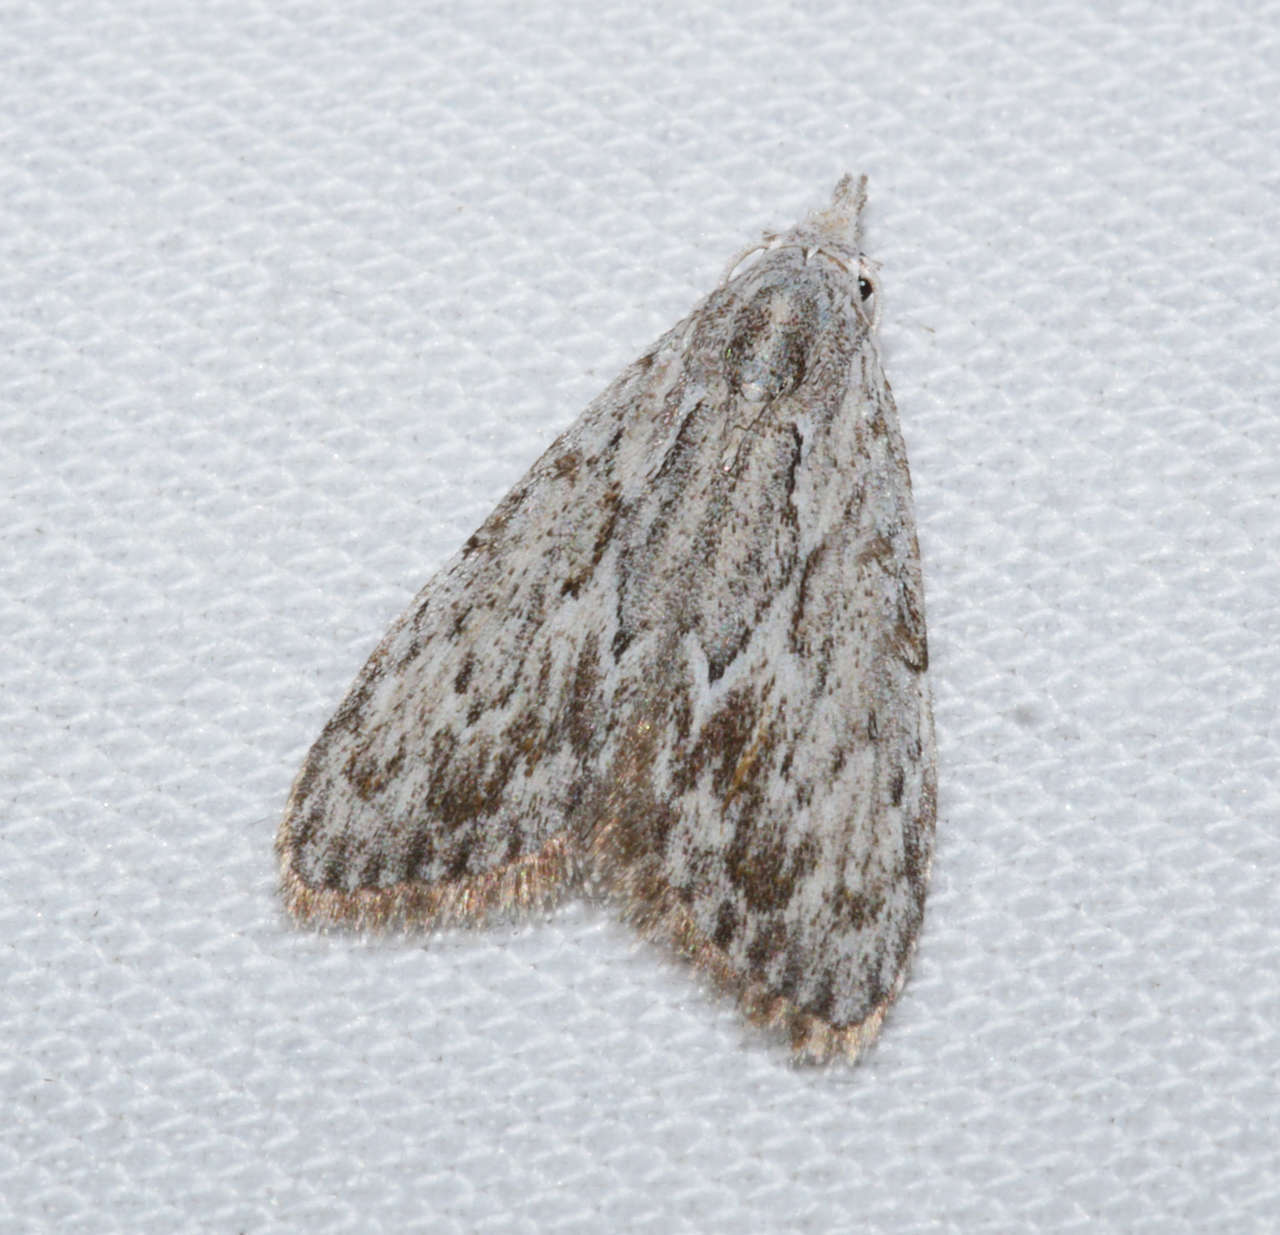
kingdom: Animalia
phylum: Arthropoda
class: Insecta
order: Lepidoptera
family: Nolidae
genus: Nola
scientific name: Nola crucigera
